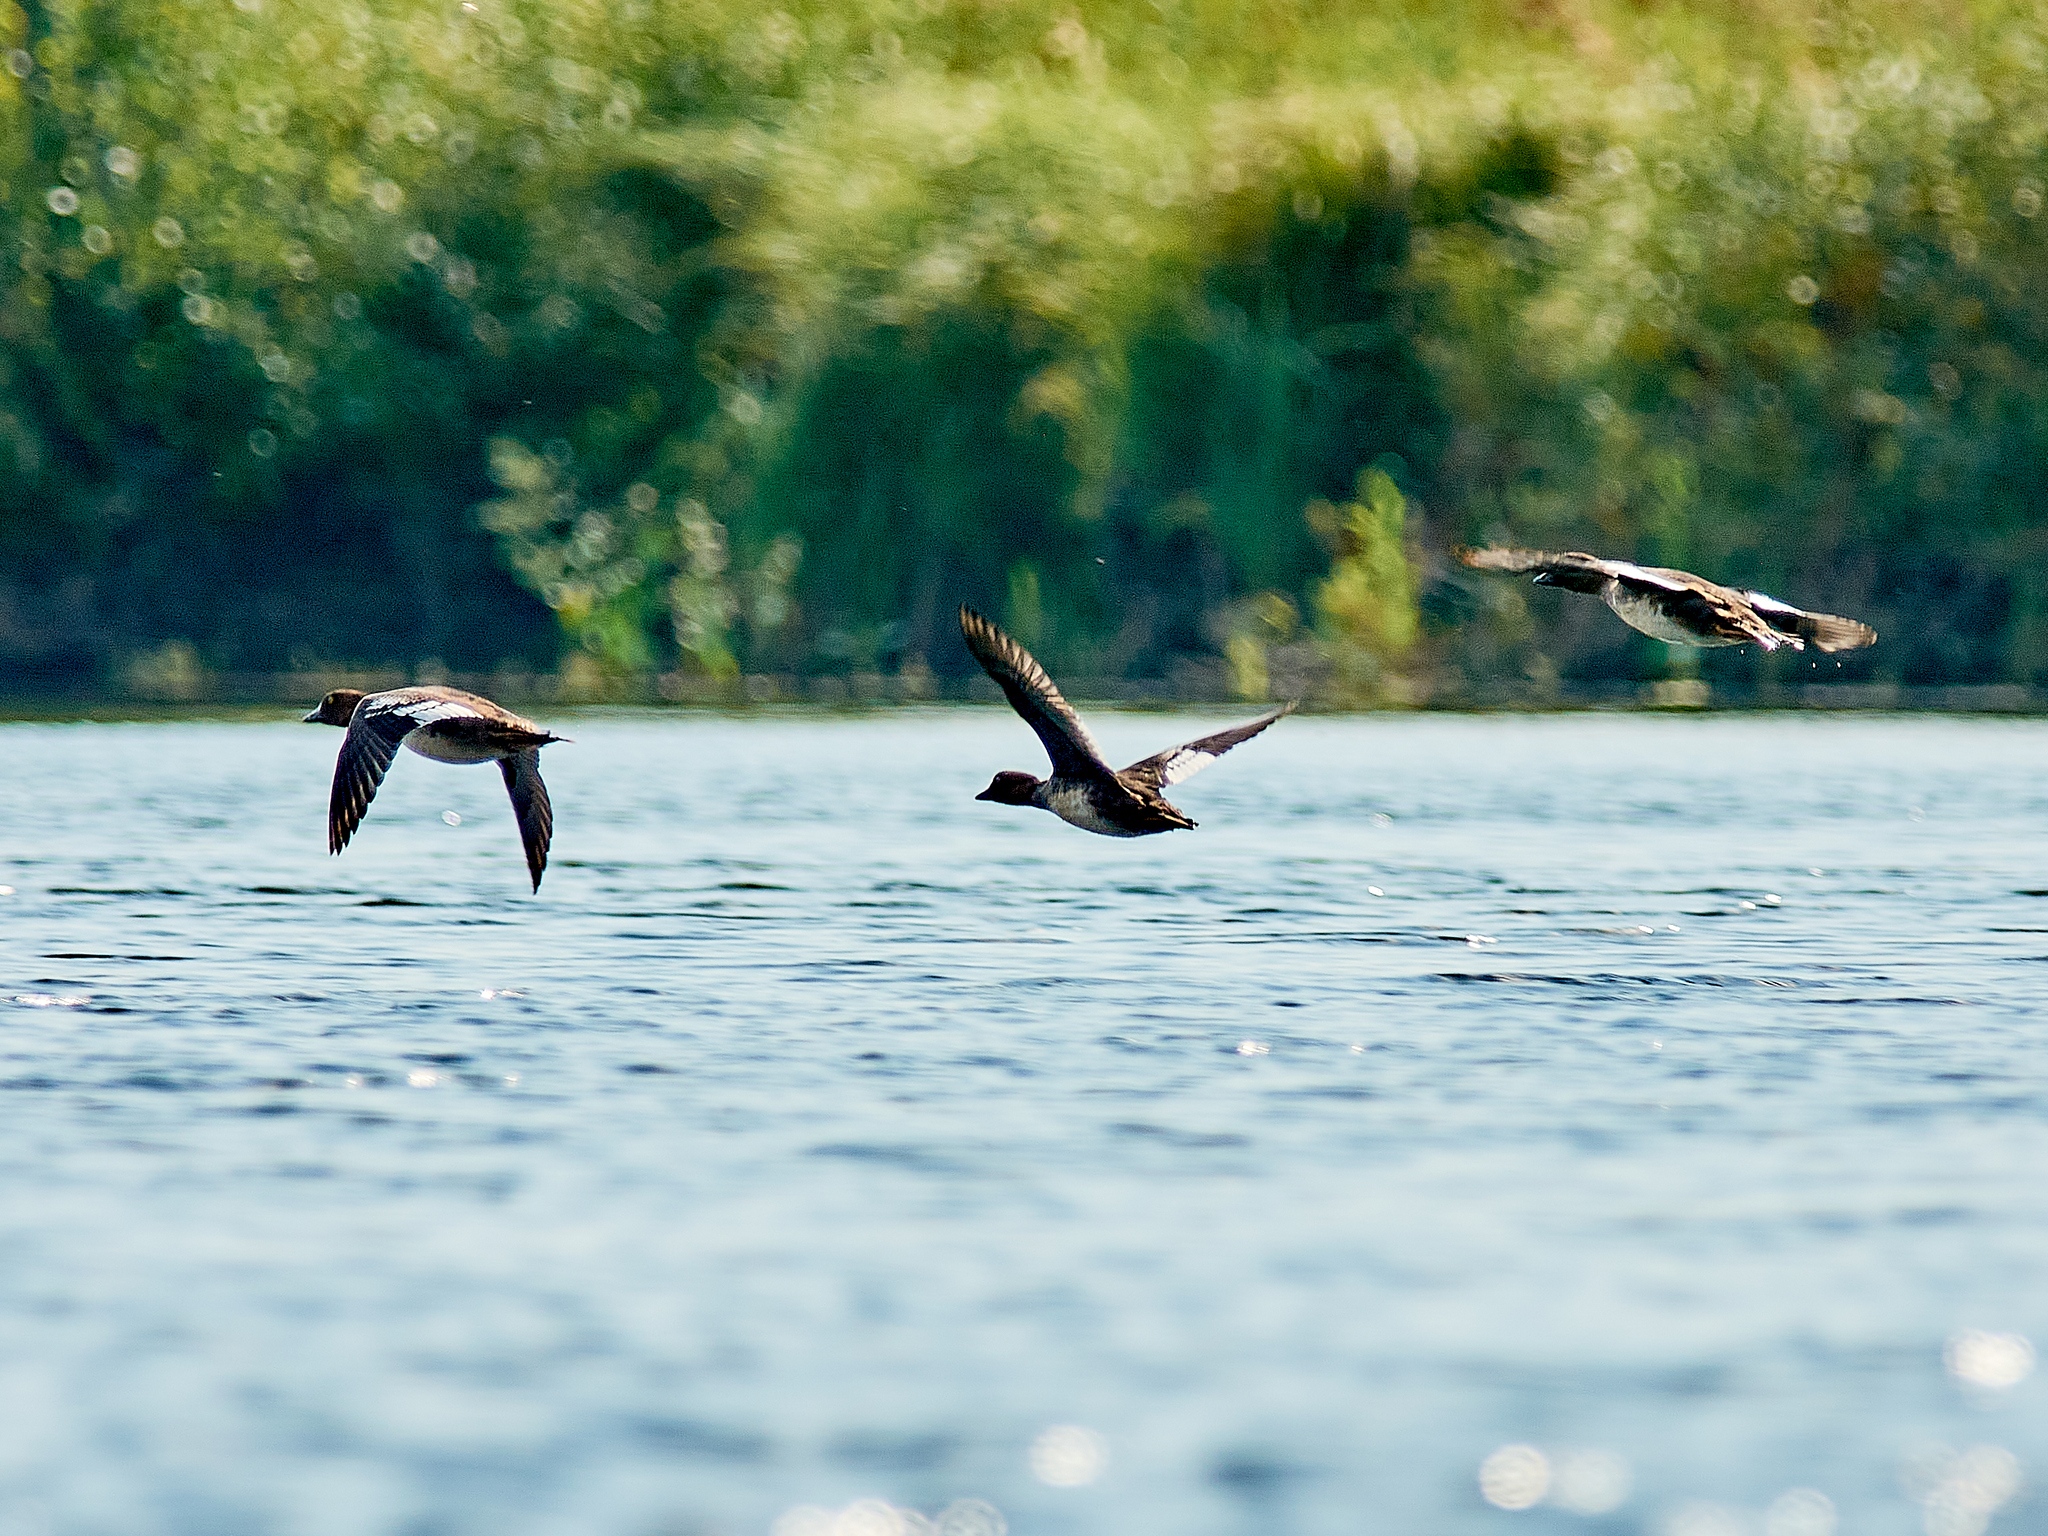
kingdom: Animalia
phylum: Chordata
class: Aves
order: Anseriformes
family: Anatidae
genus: Bucephala
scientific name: Bucephala clangula
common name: Common goldeneye
